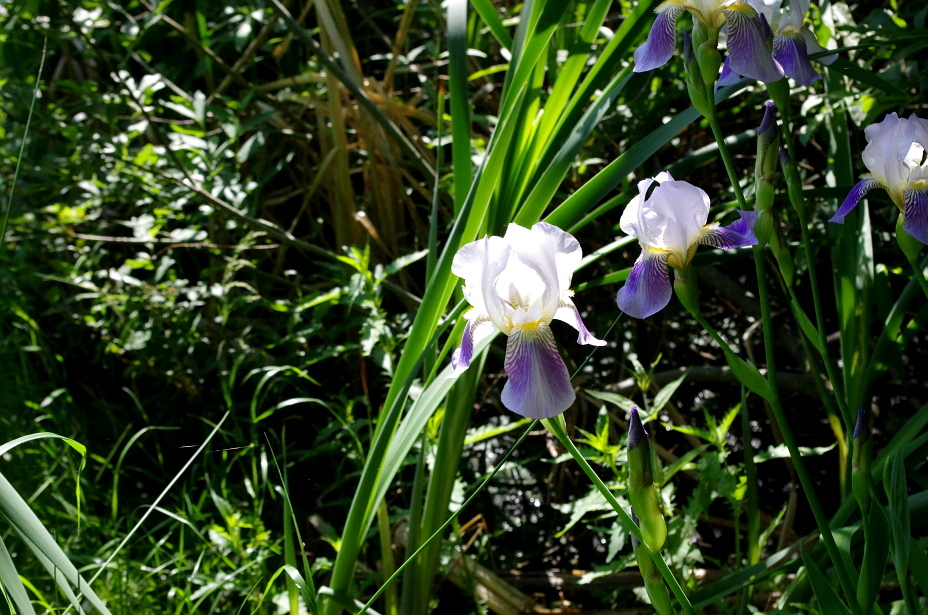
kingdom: Plantae
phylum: Tracheophyta
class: Liliopsida
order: Asparagales
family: Iridaceae
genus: Iris
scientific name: Iris hybrida
